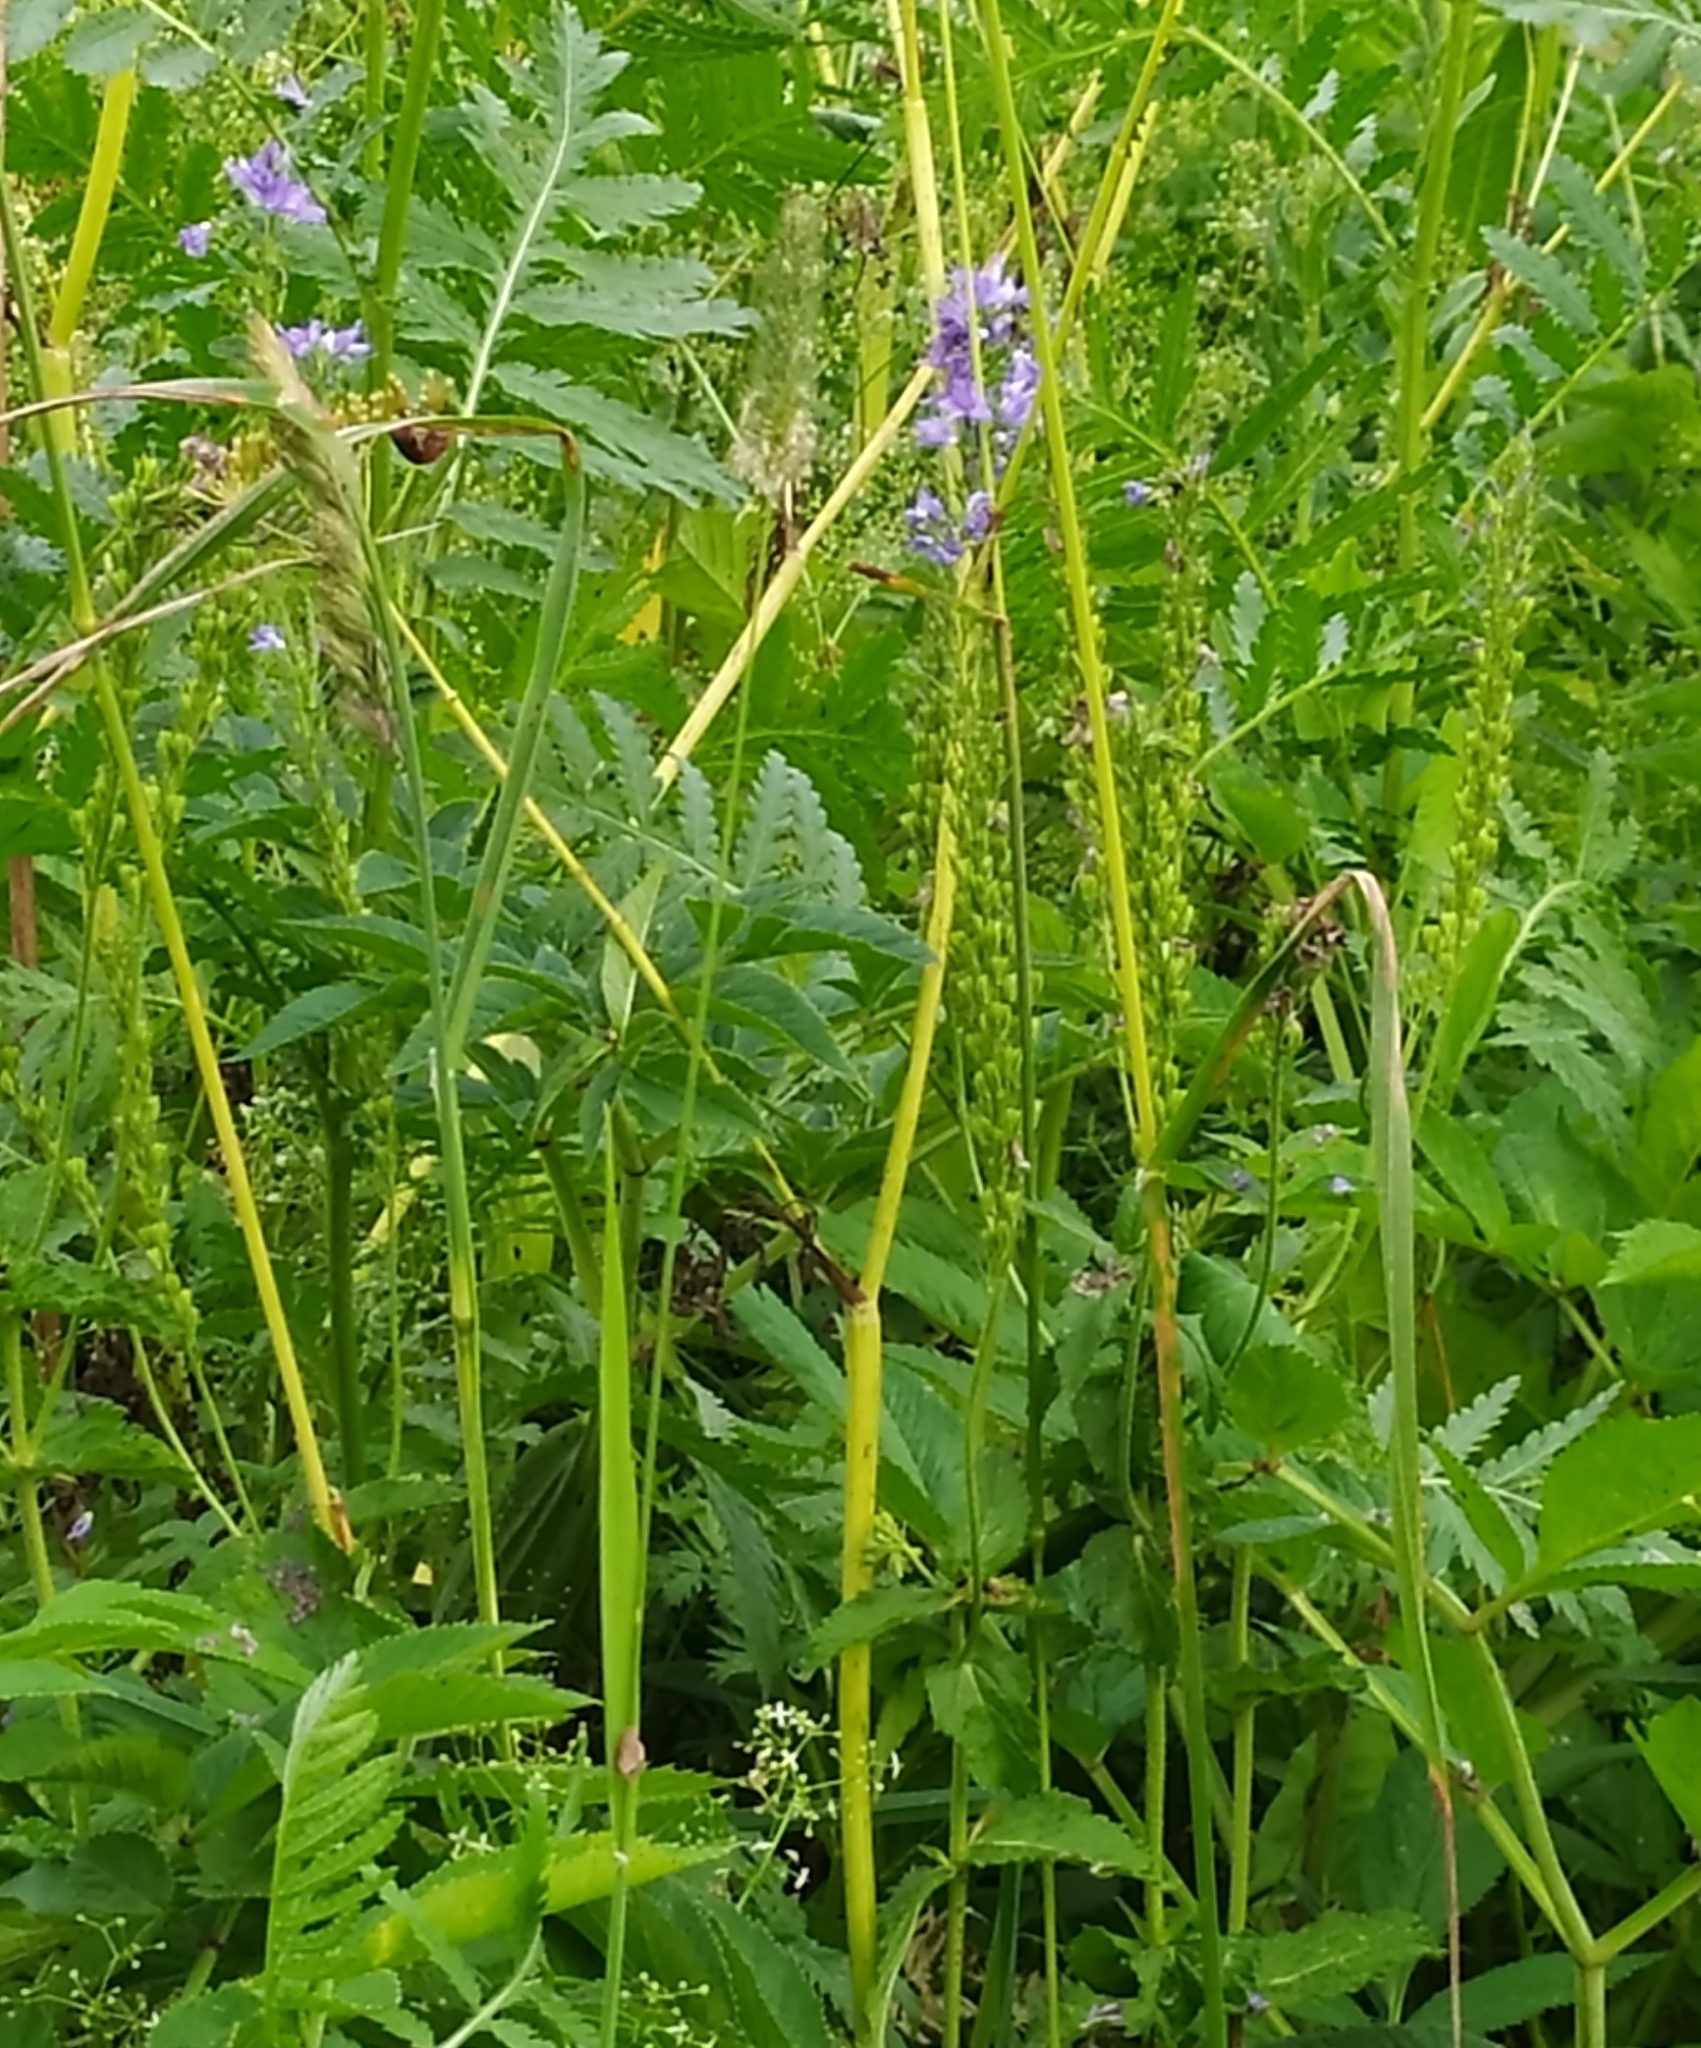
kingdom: Plantae
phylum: Tracheophyta
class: Magnoliopsida
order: Lamiales
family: Plantaginaceae
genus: Veronica
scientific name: Veronica teucrium
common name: Large speedwell
